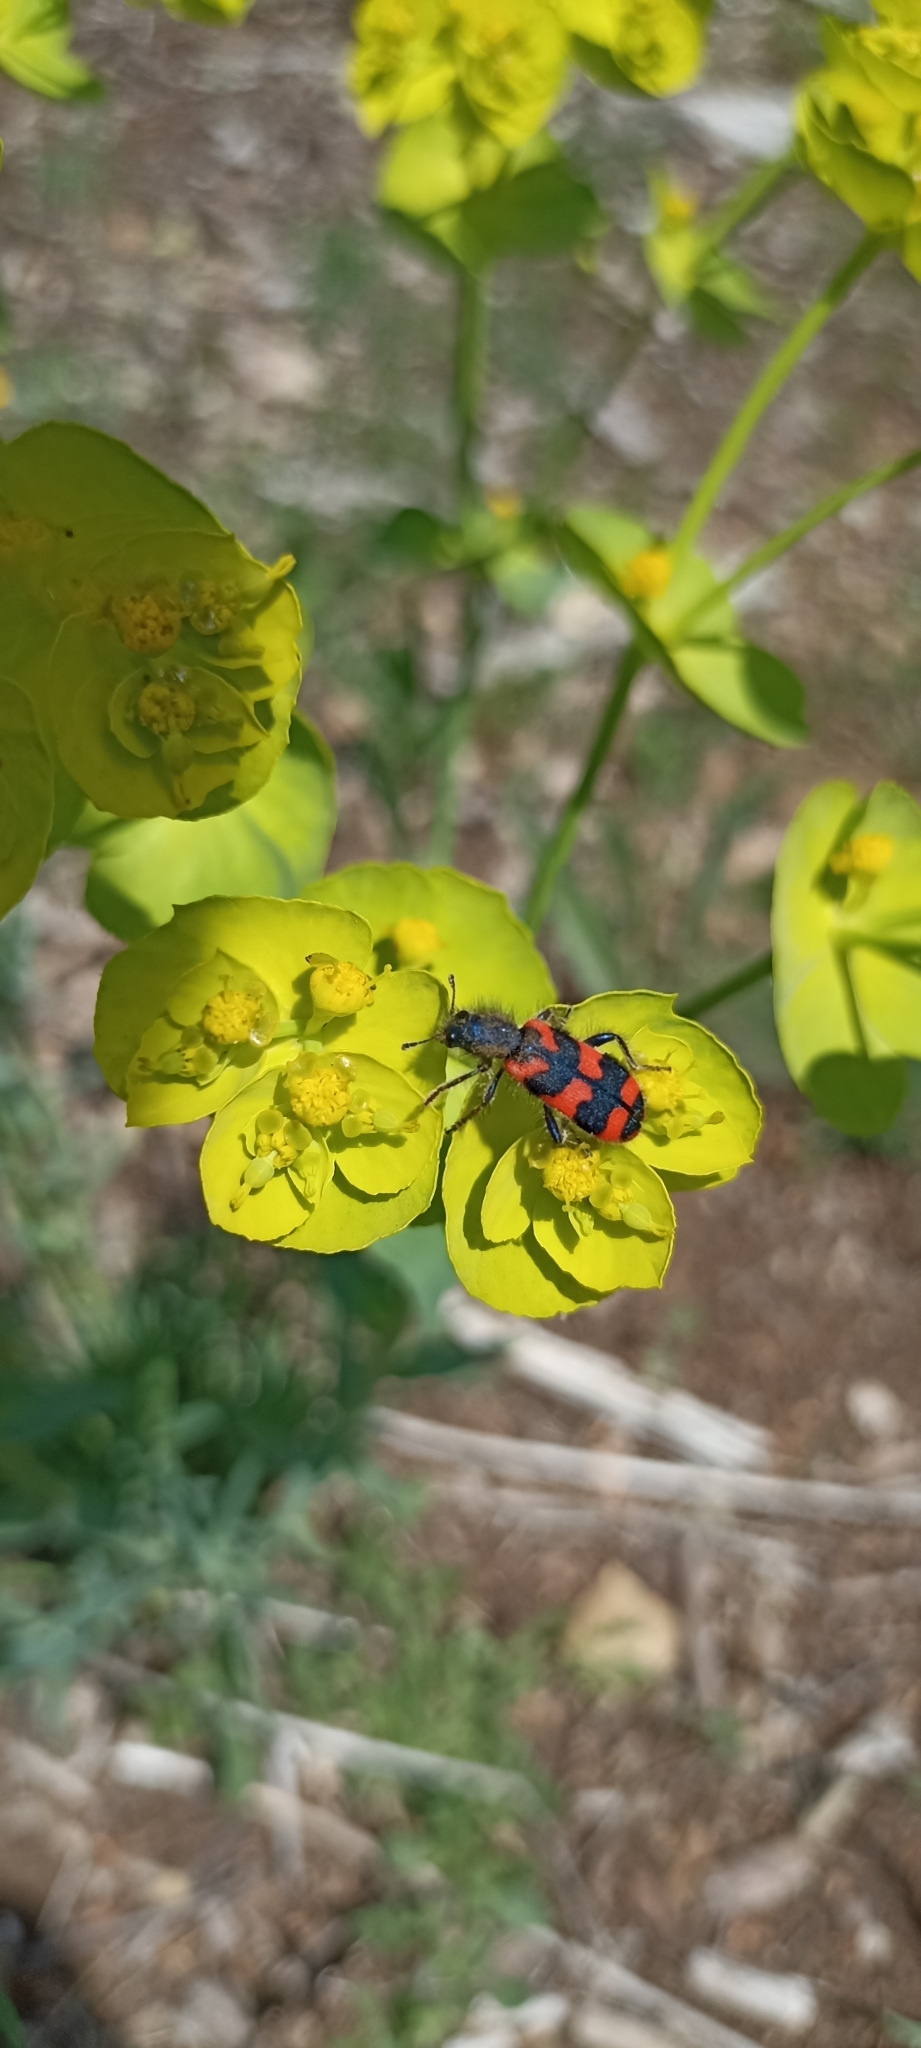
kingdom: Animalia
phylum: Arthropoda
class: Insecta
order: Coleoptera
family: Cleridae
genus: Trichodes
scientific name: Trichodes alvearius
